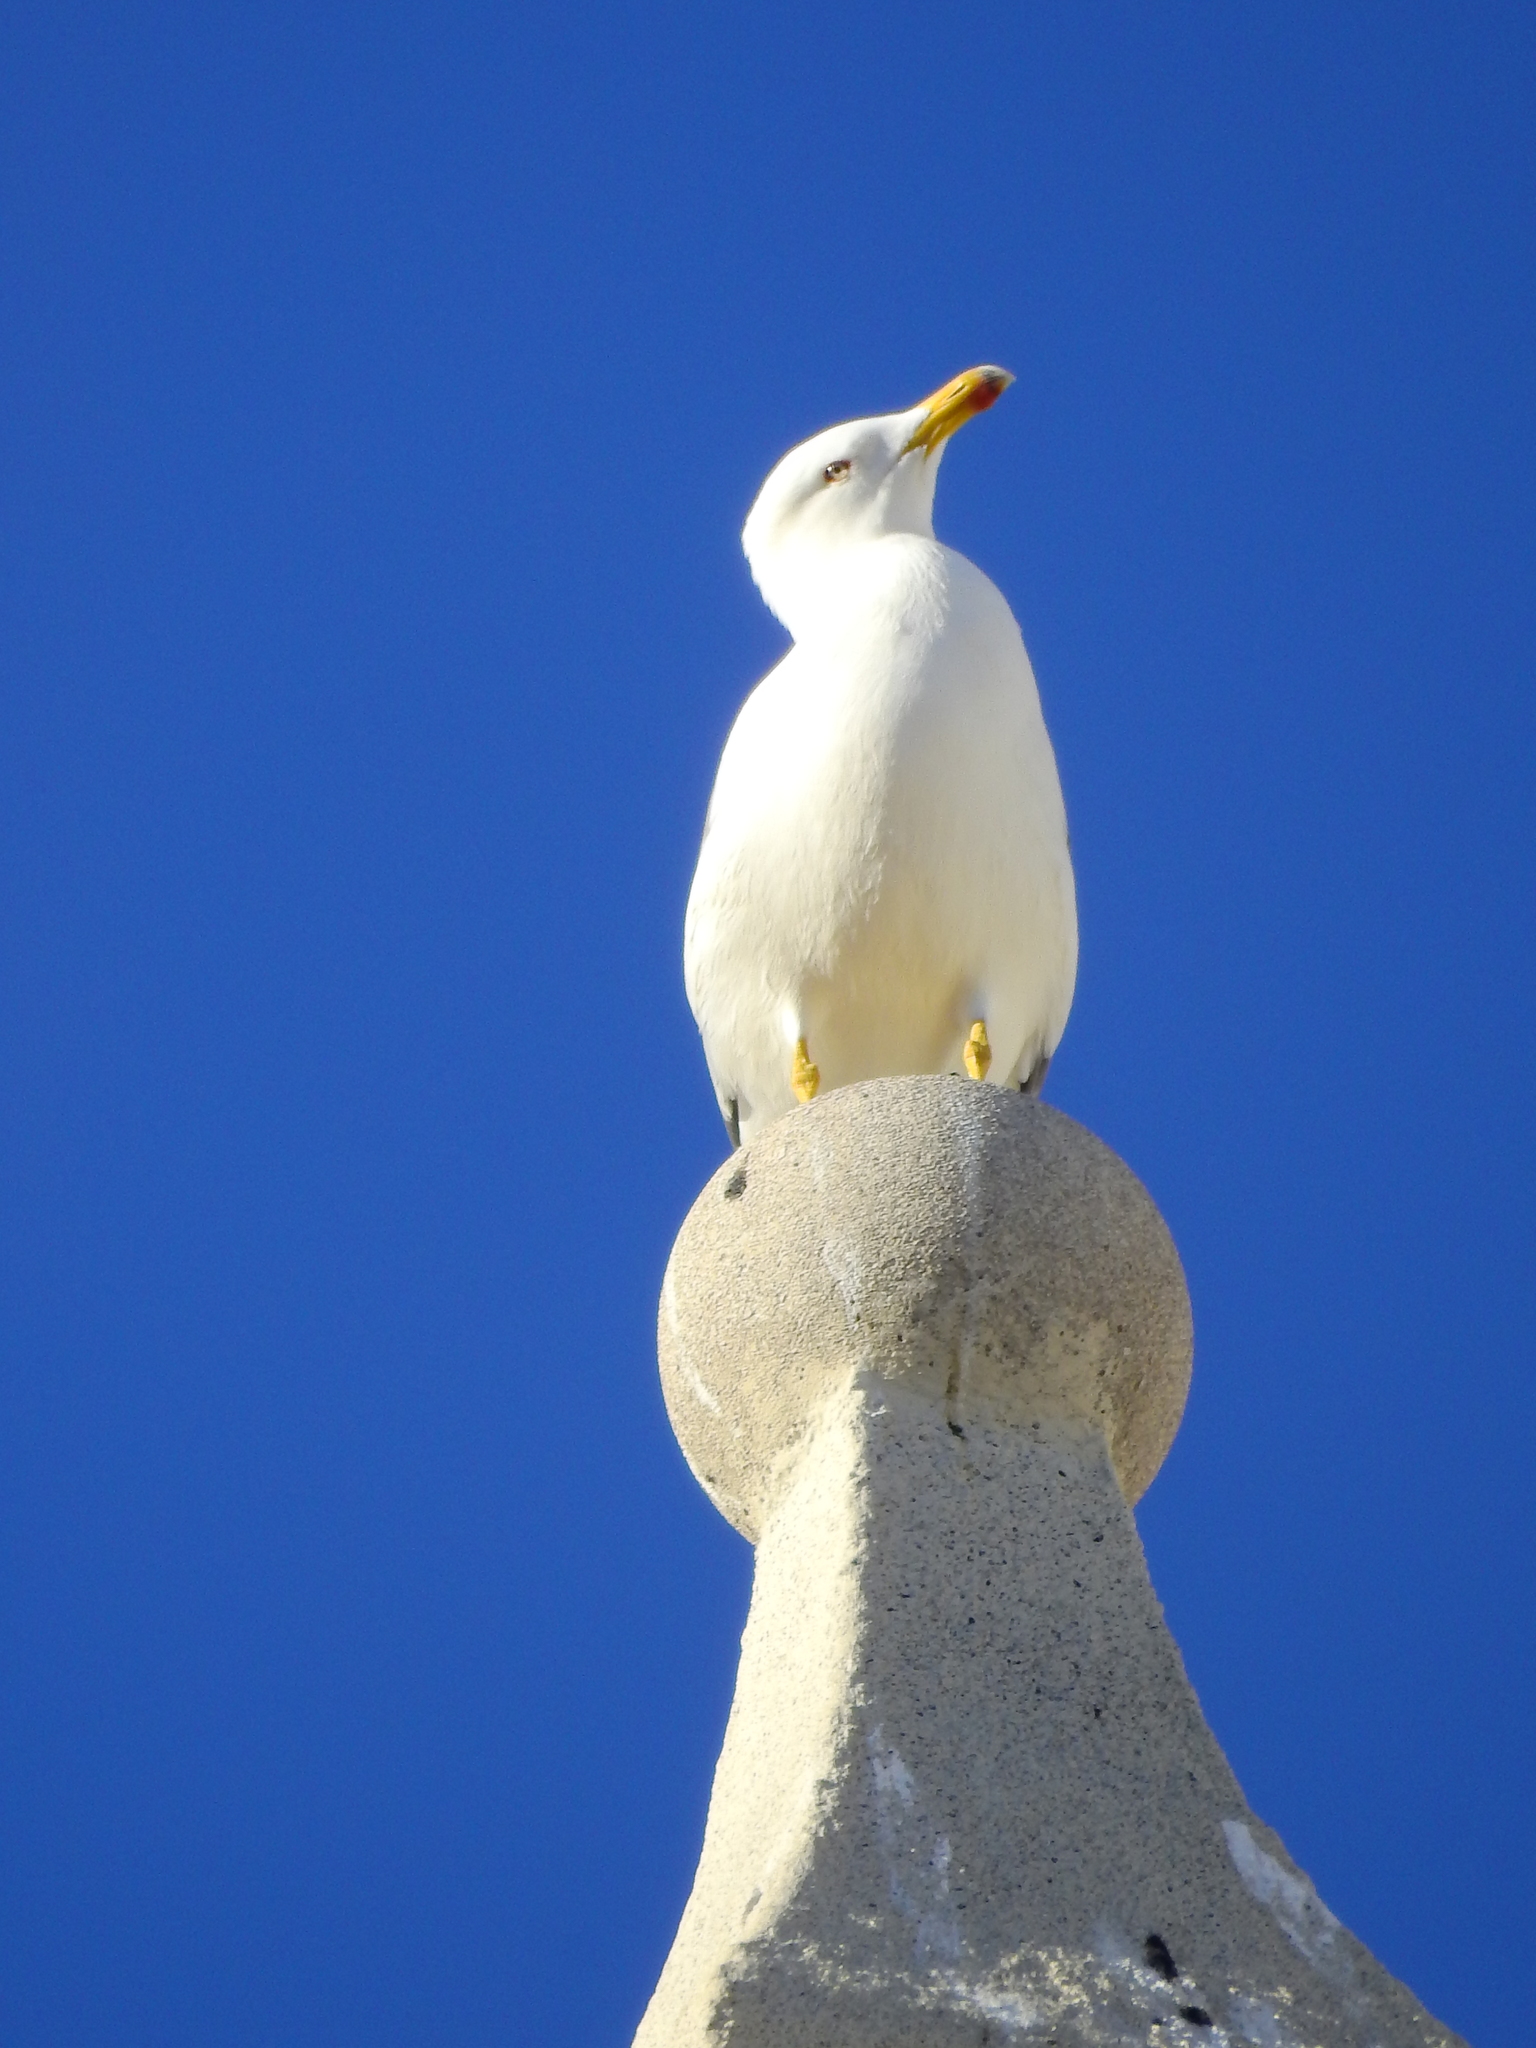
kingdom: Animalia
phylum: Chordata
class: Aves
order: Charadriiformes
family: Laridae
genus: Larus
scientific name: Larus michahellis
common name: Yellow-legged gull
